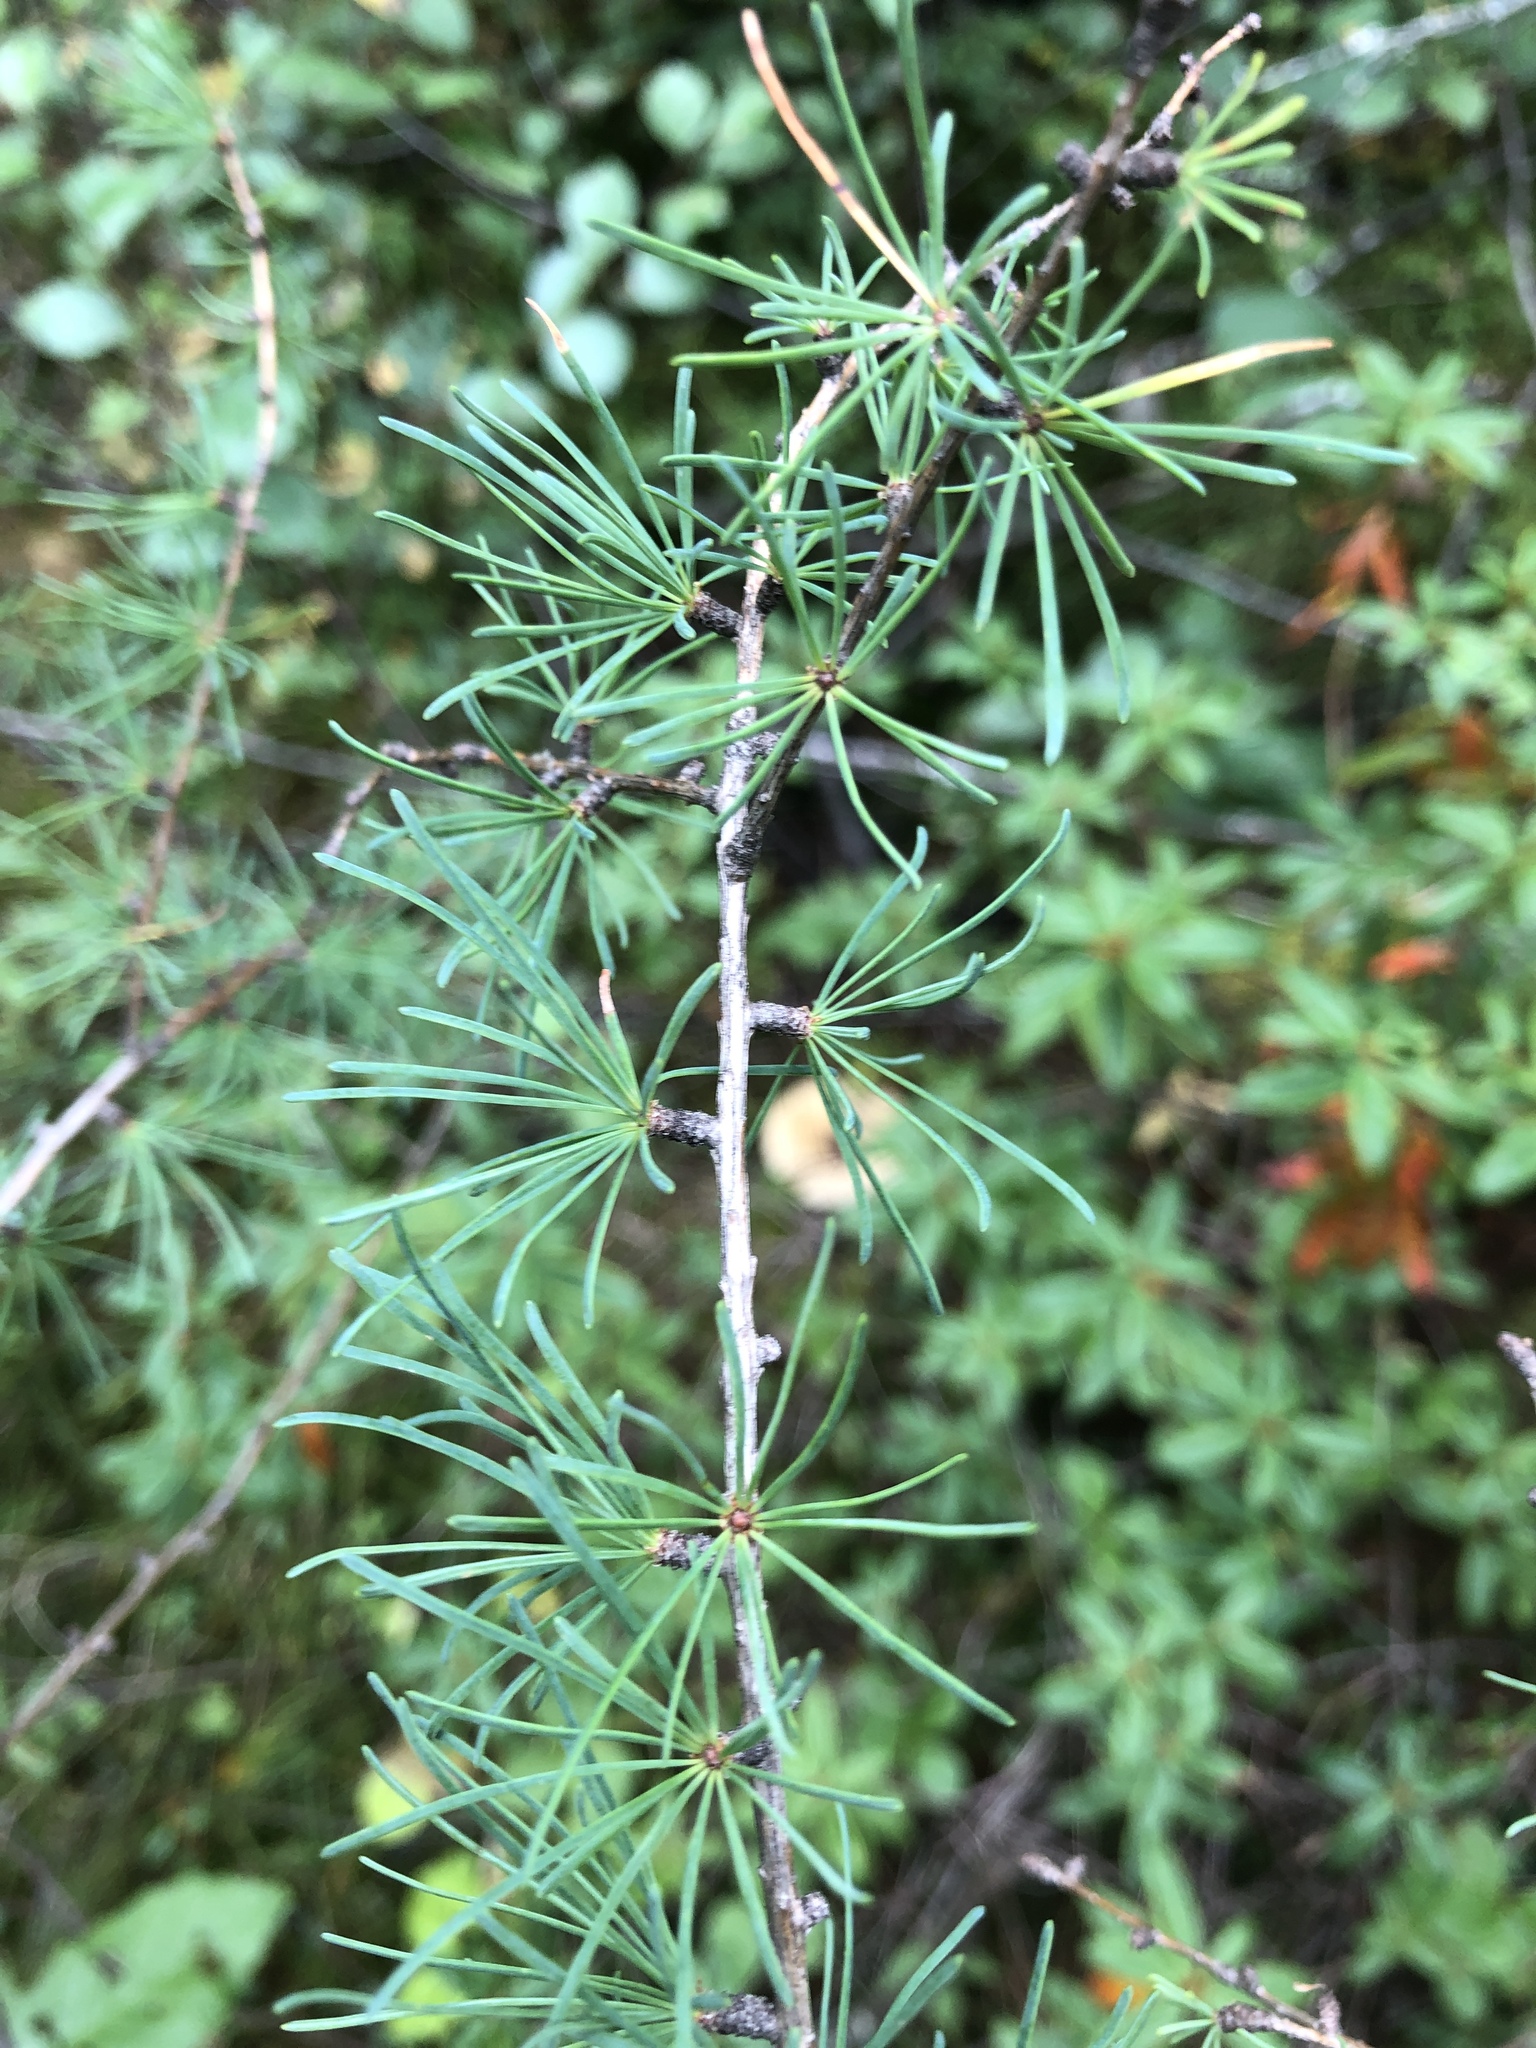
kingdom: Plantae
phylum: Tracheophyta
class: Pinopsida
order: Pinales
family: Pinaceae
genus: Larix
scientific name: Larix laricina
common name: American larch
